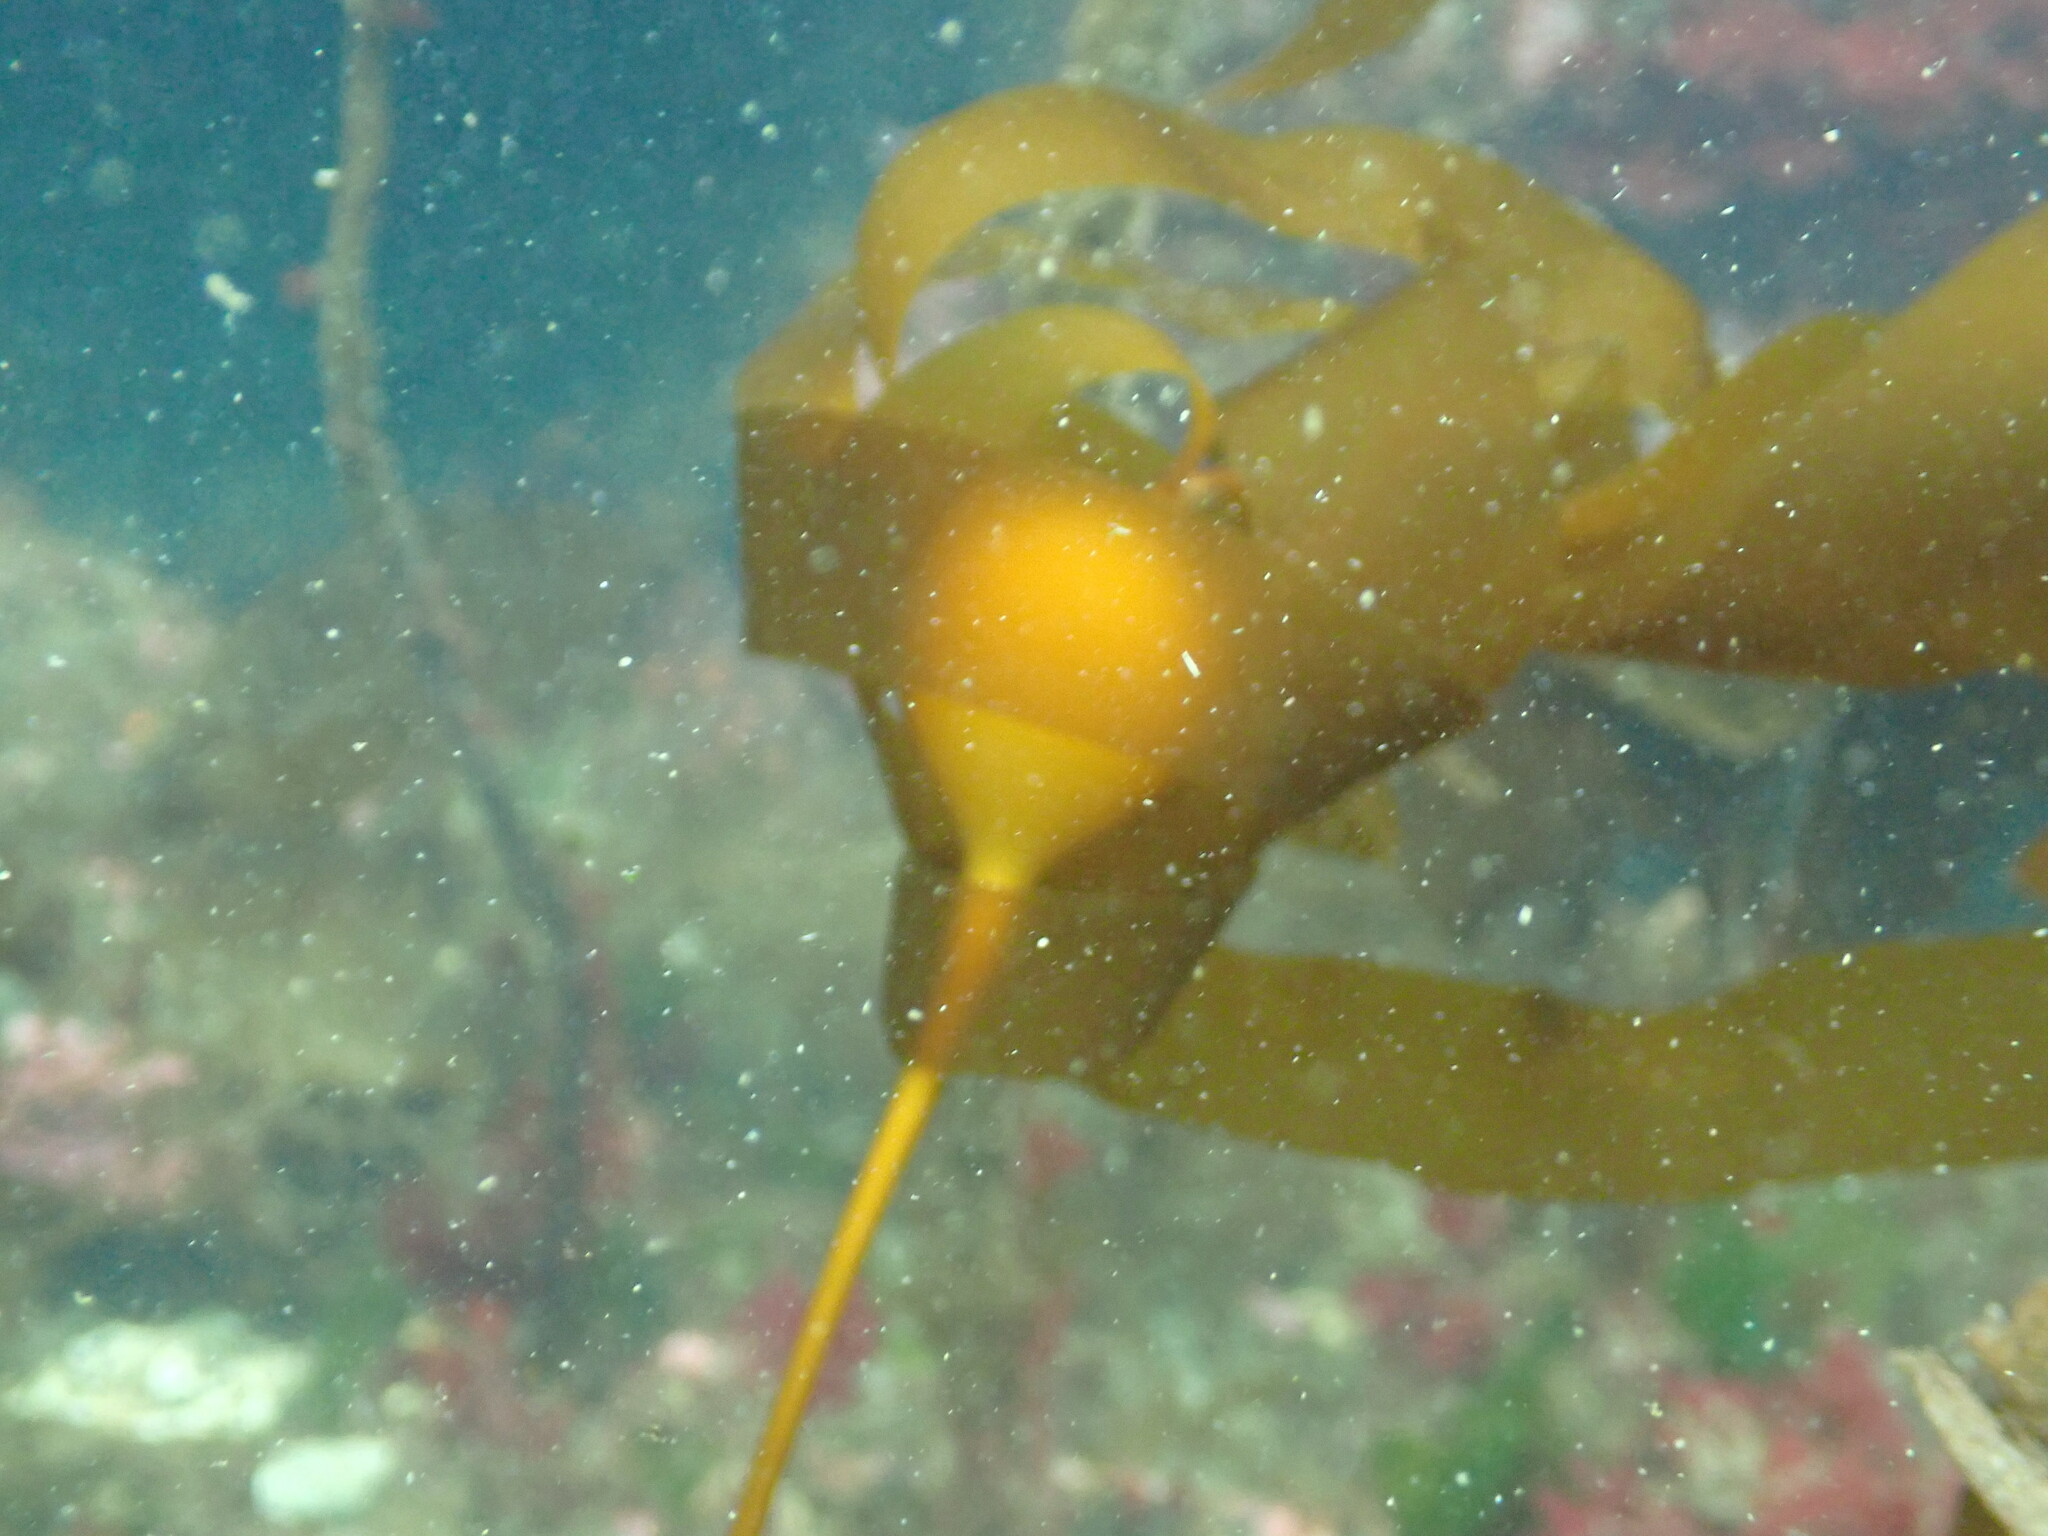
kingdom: Chromista
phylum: Ochrophyta
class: Phaeophyceae
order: Laminariales
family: Laminariaceae
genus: Nereocystis
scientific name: Nereocystis luetkeana
